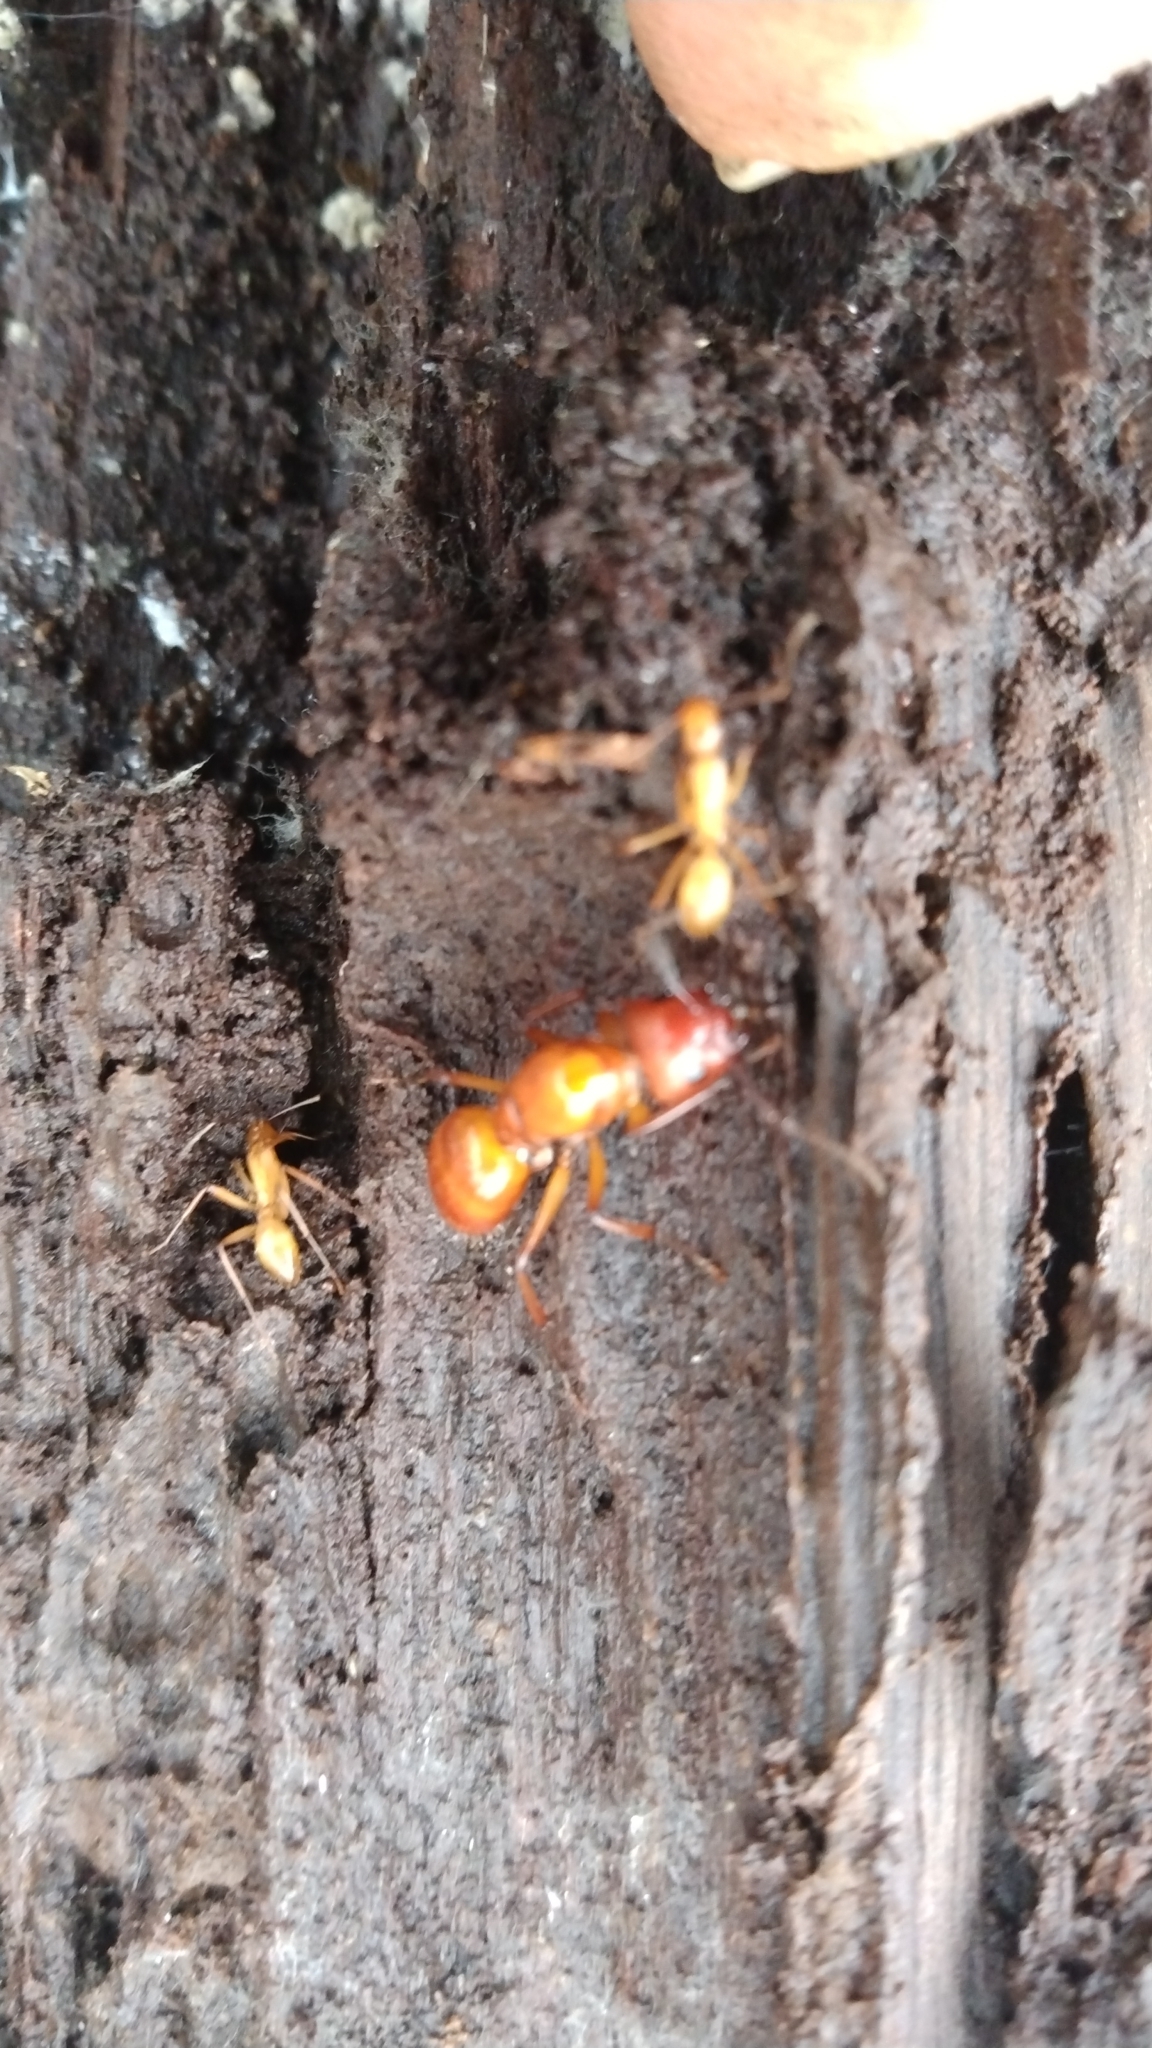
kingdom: Animalia
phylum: Arthropoda
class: Insecta
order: Hymenoptera
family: Formicidae
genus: Camponotus
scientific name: Camponotus castaneus
